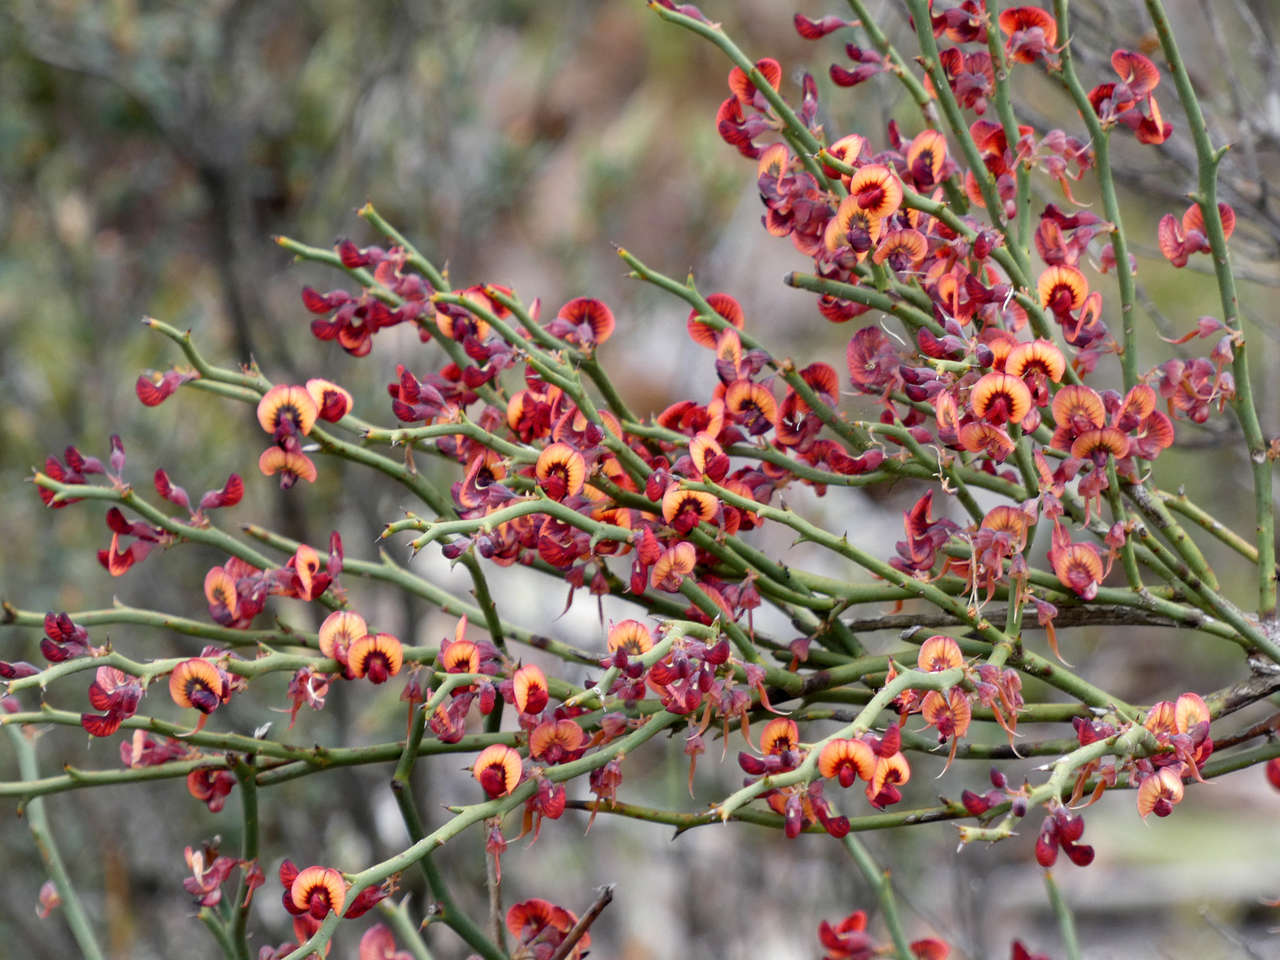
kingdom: Plantae
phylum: Tracheophyta
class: Magnoliopsida
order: Fabales
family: Fabaceae
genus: Daviesia
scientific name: Daviesia brevifolia
